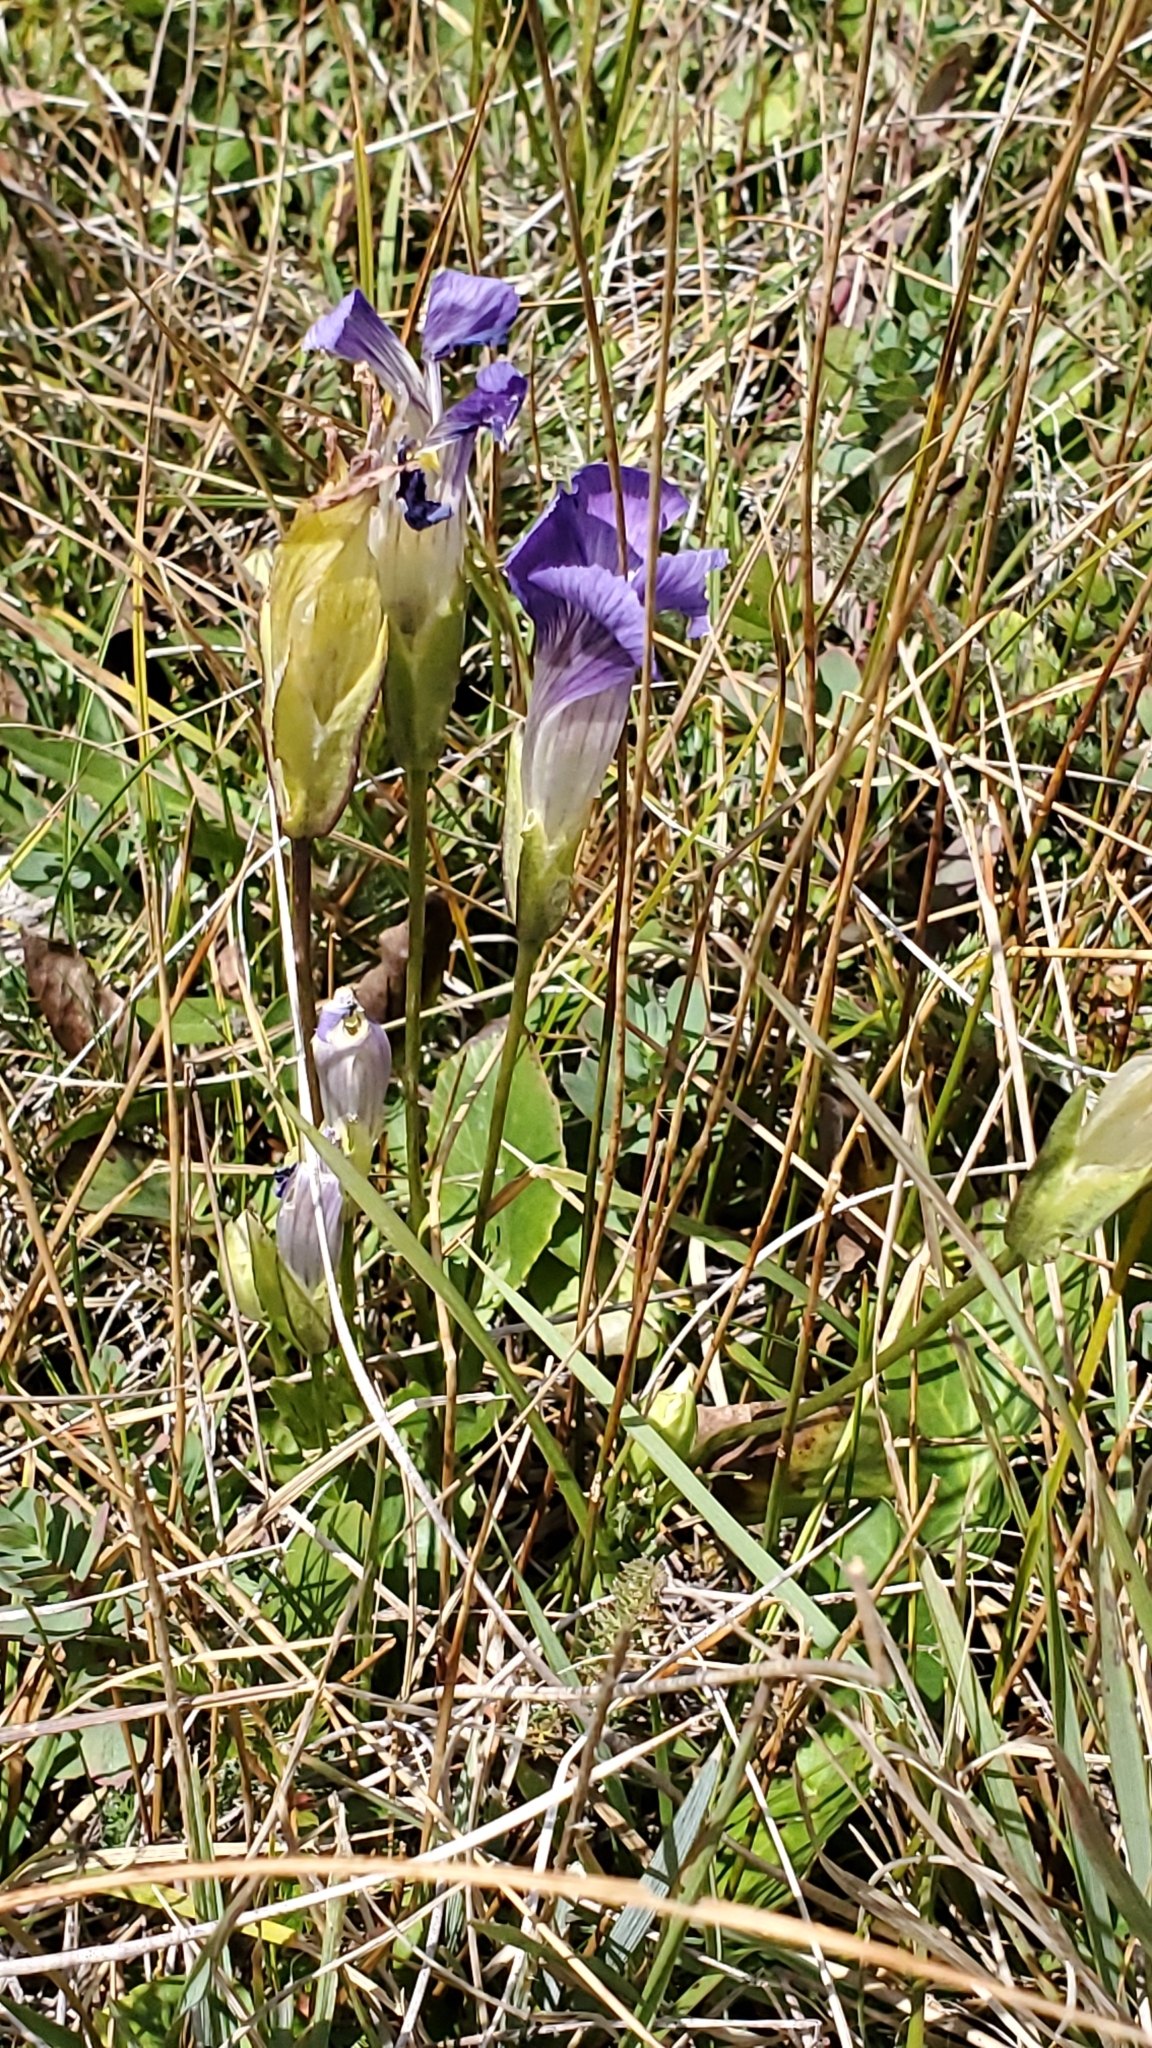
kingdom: Plantae
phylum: Tracheophyta
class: Magnoliopsida
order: Gentianales
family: Gentianaceae
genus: Gentianopsis
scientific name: Gentianopsis thermalis
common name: Rocky mountain fringed-gentian
